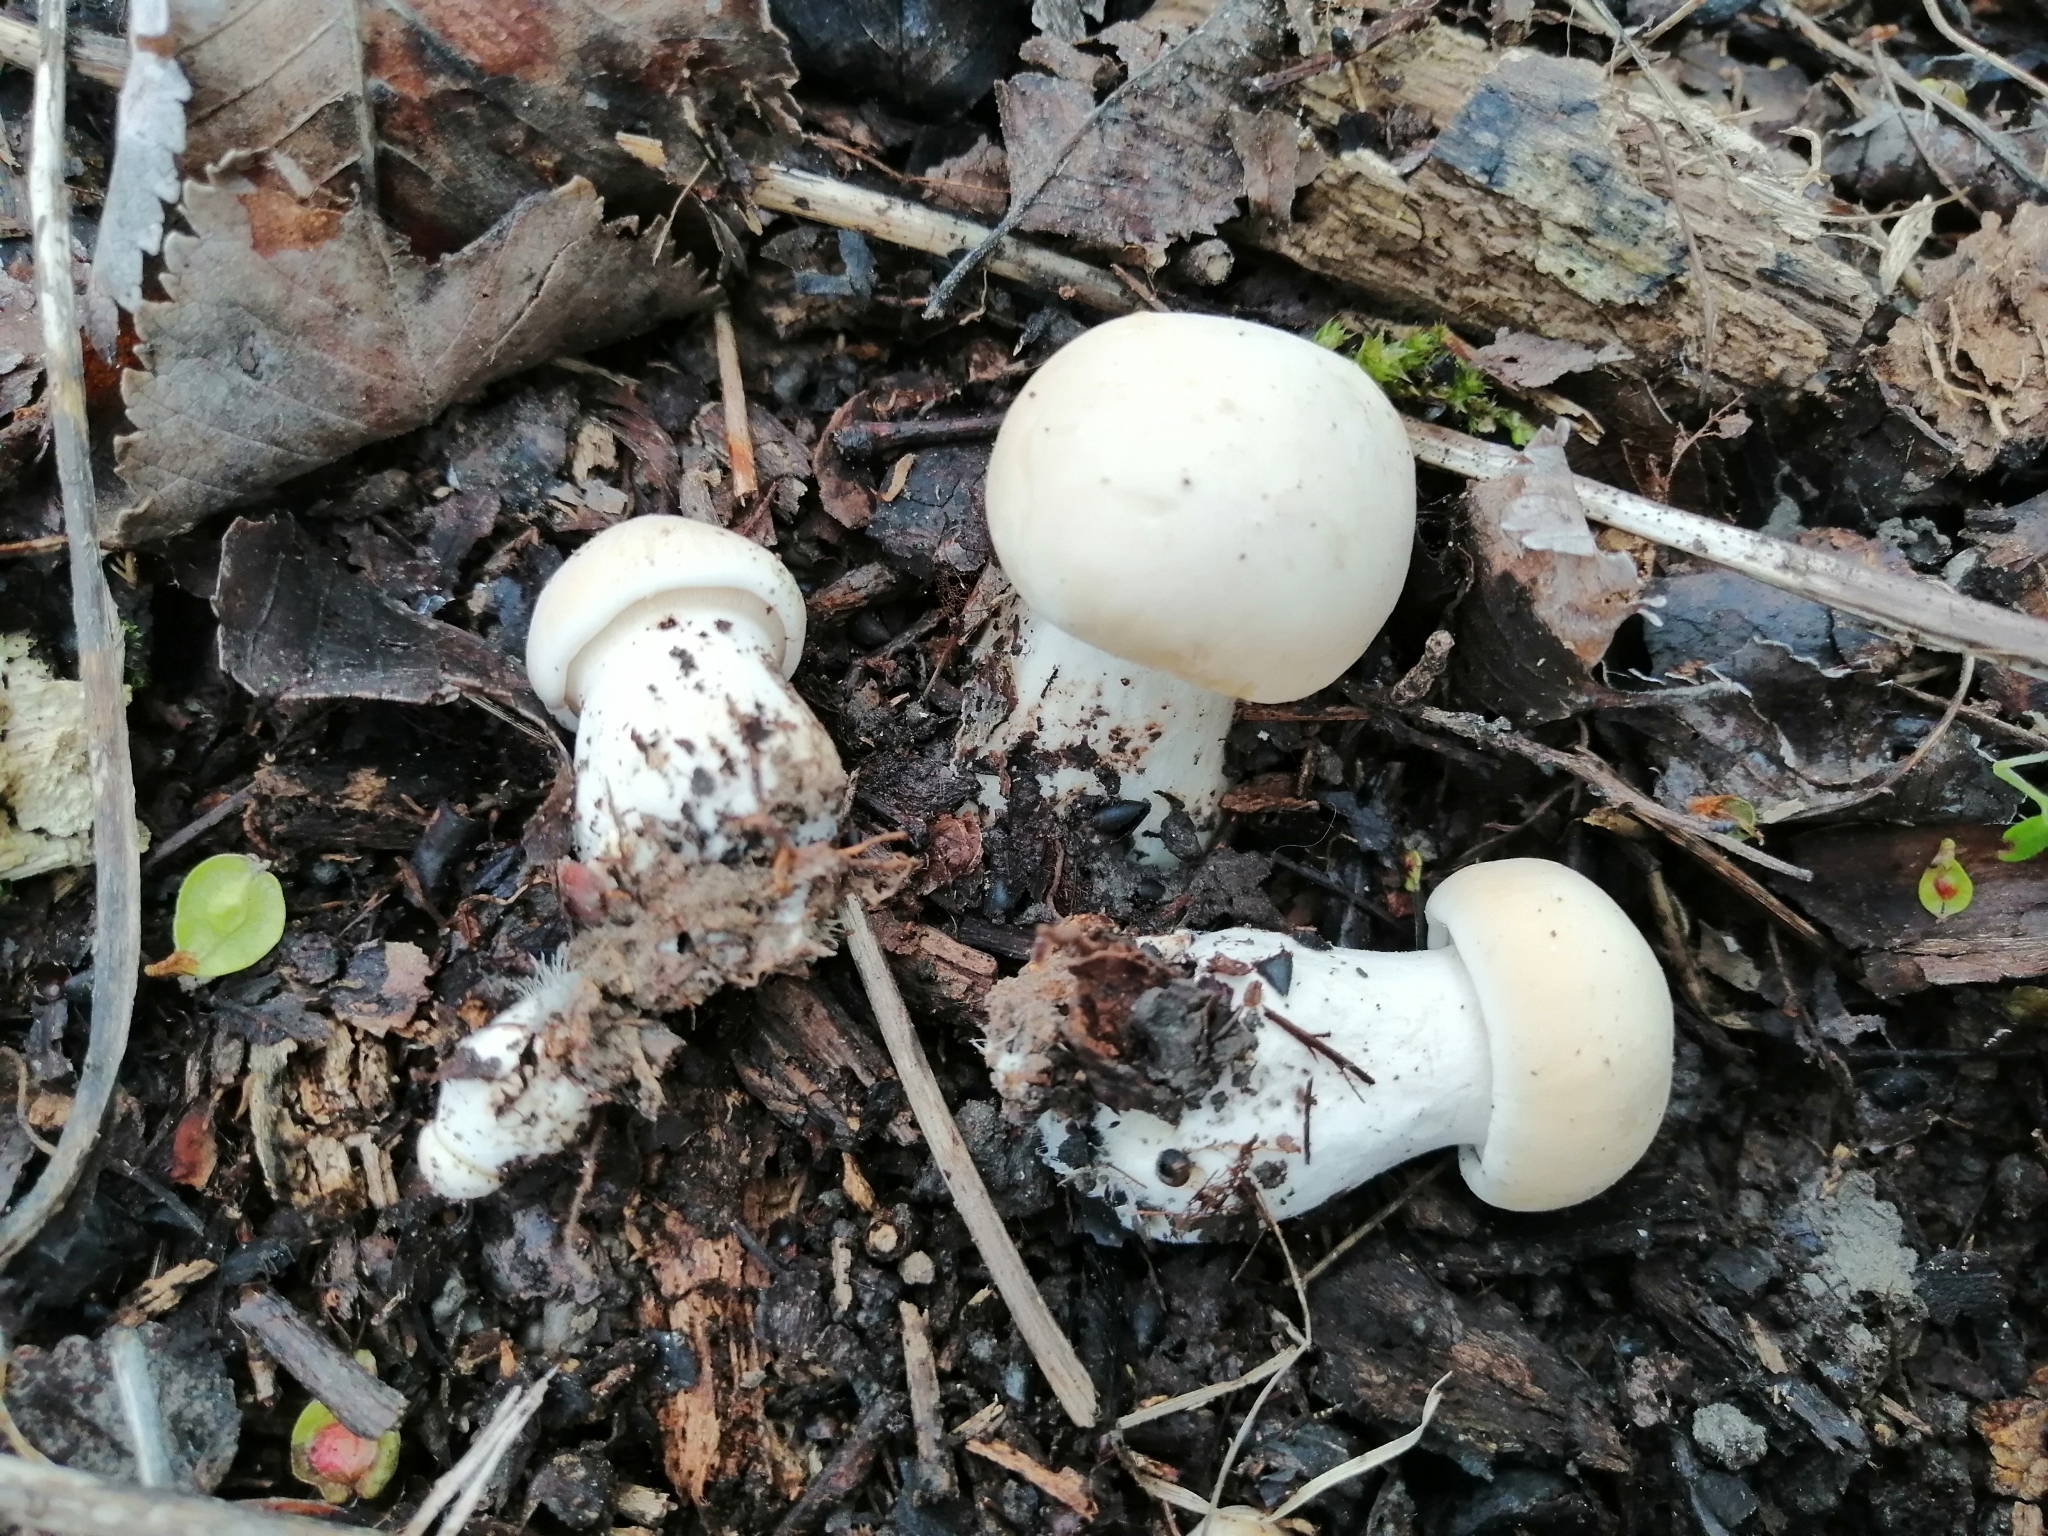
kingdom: Fungi
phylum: Basidiomycota
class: Agaricomycetes
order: Agaricales
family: Lyophyllaceae
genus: Calocybe
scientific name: Calocybe gambosa
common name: St. george's mushroom
